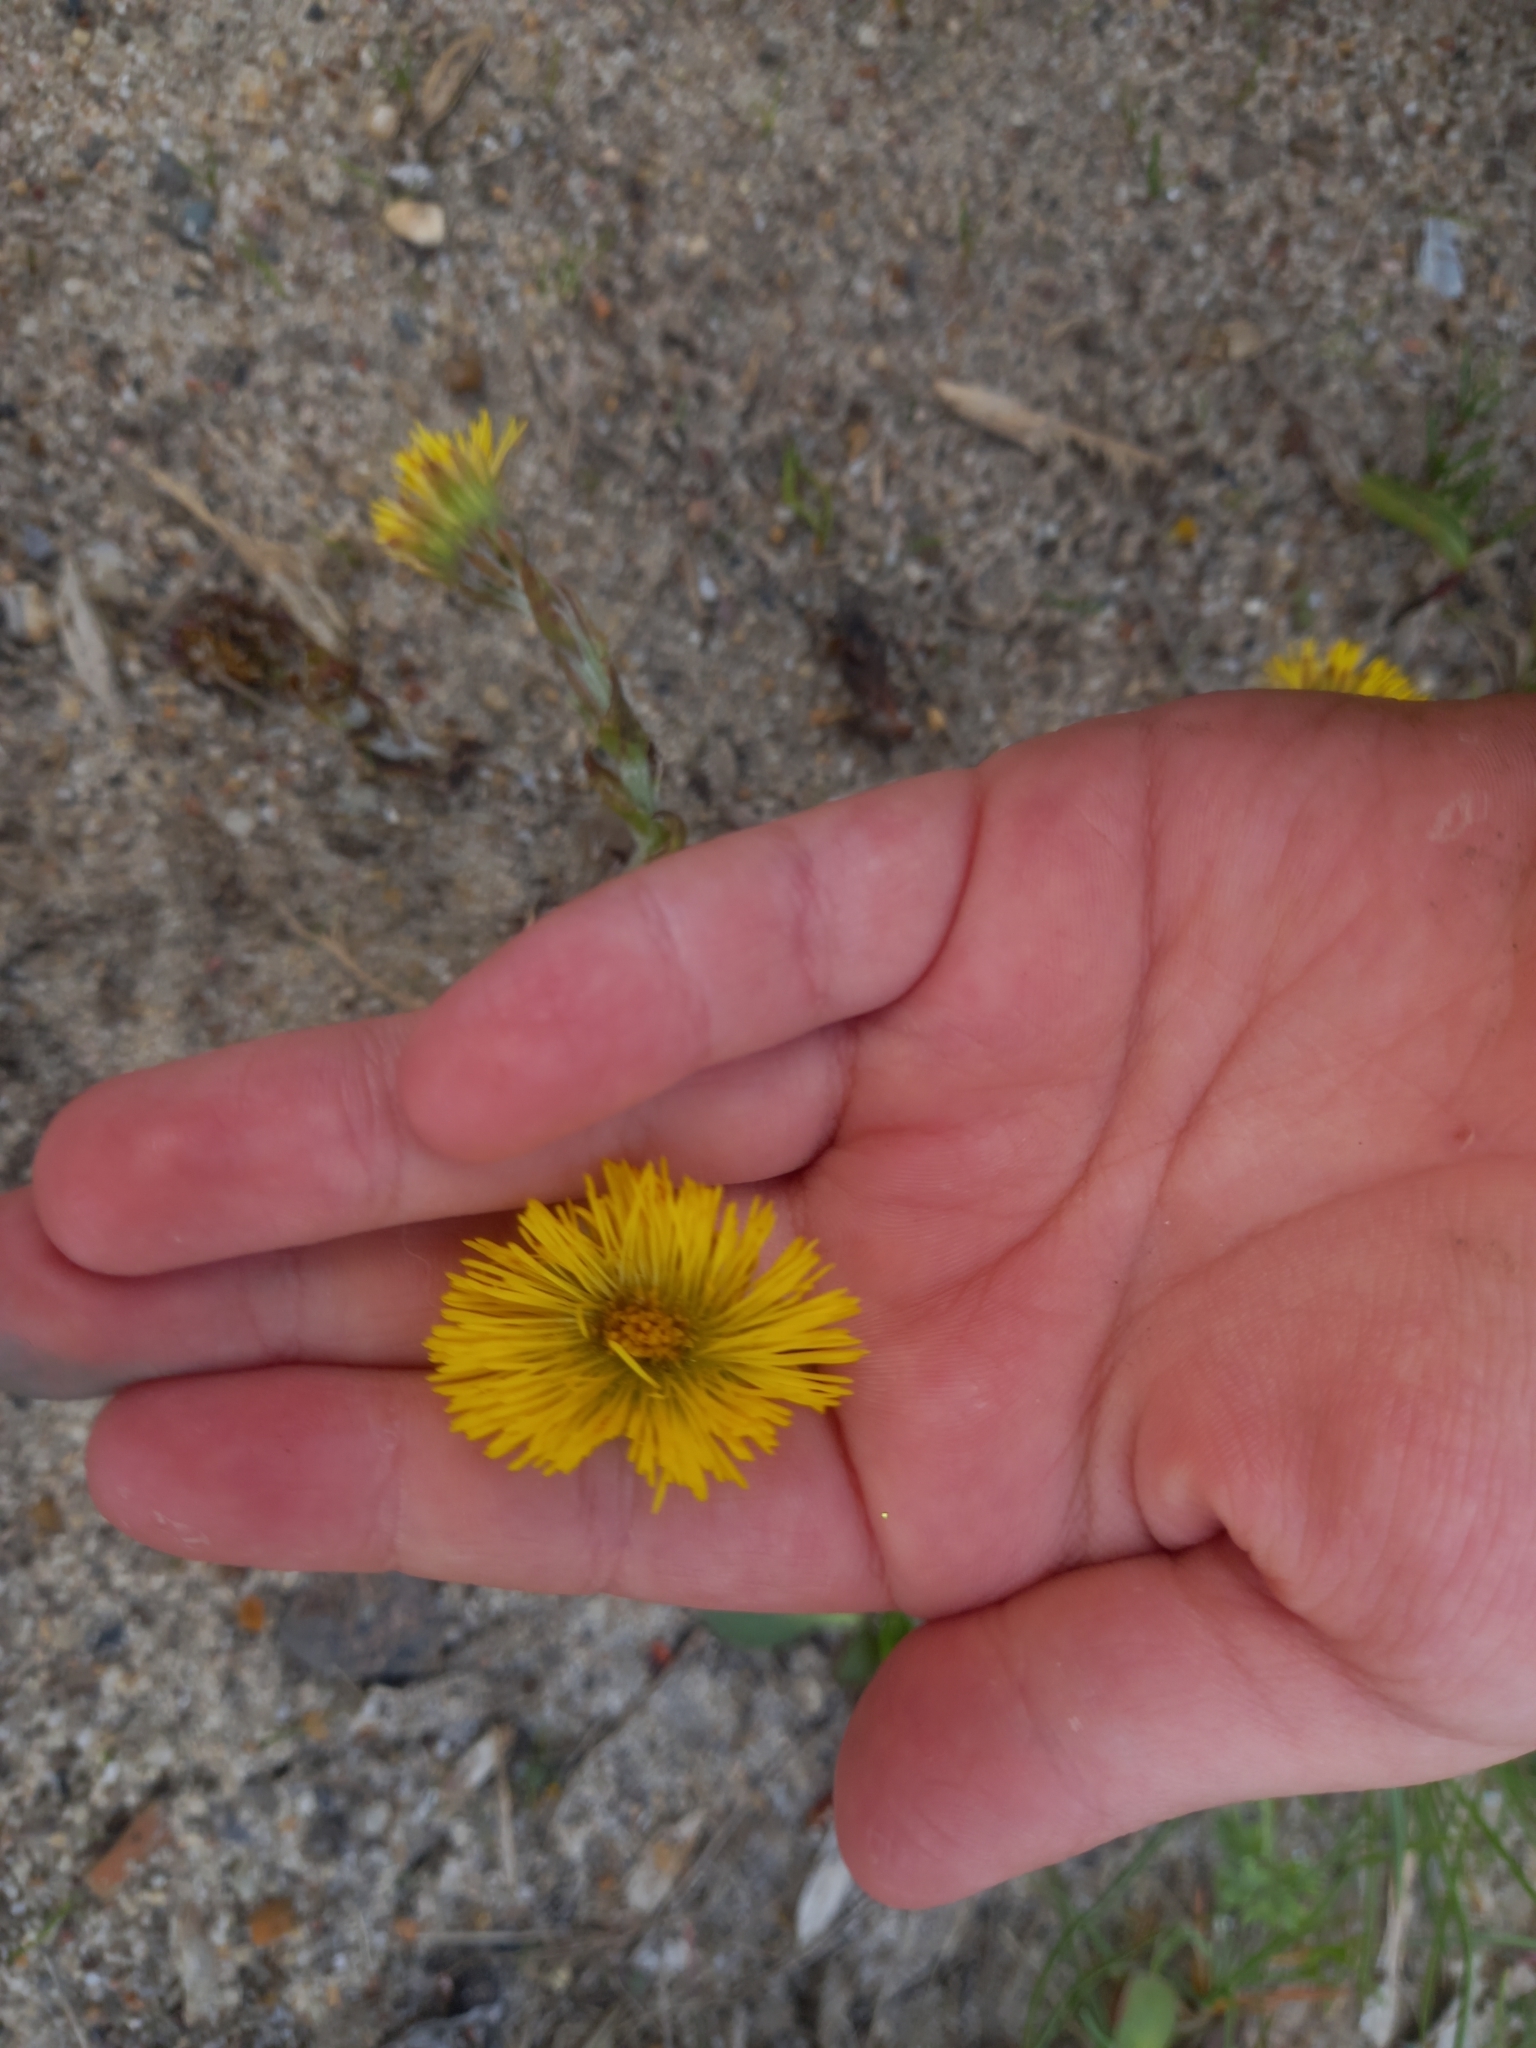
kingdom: Plantae
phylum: Tracheophyta
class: Magnoliopsida
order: Asterales
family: Asteraceae
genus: Tussilago
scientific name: Tussilago farfara
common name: Coltsfoot
